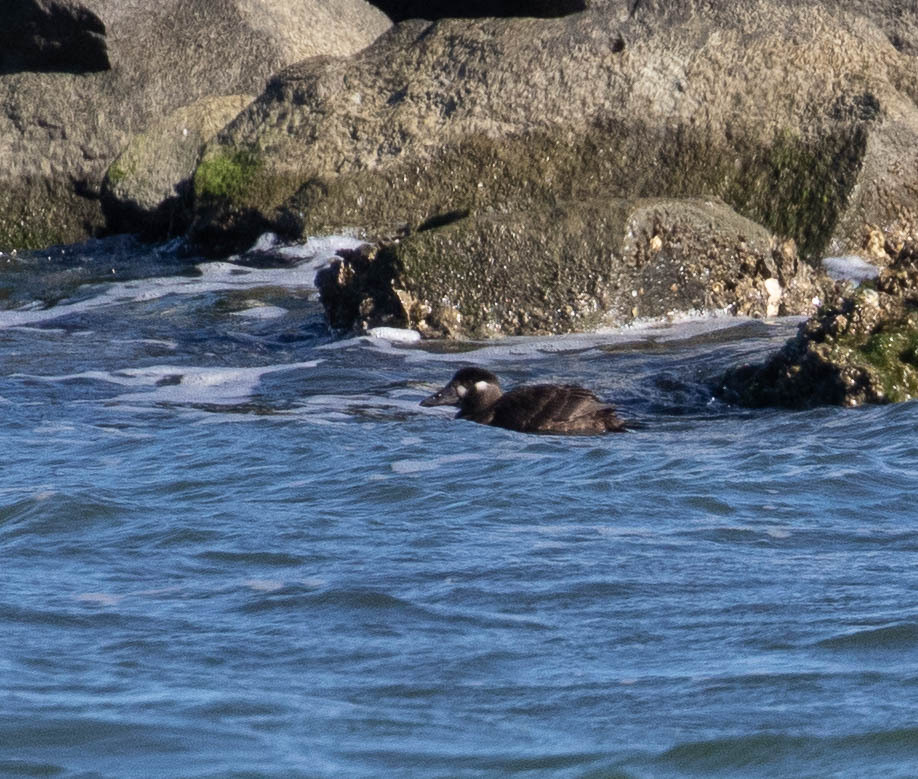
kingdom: Animalia
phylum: Chordata
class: Aves
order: Anseriformes
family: Anatidae
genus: Melanitta
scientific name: Melanitta perspicillata
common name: Surf scoter
